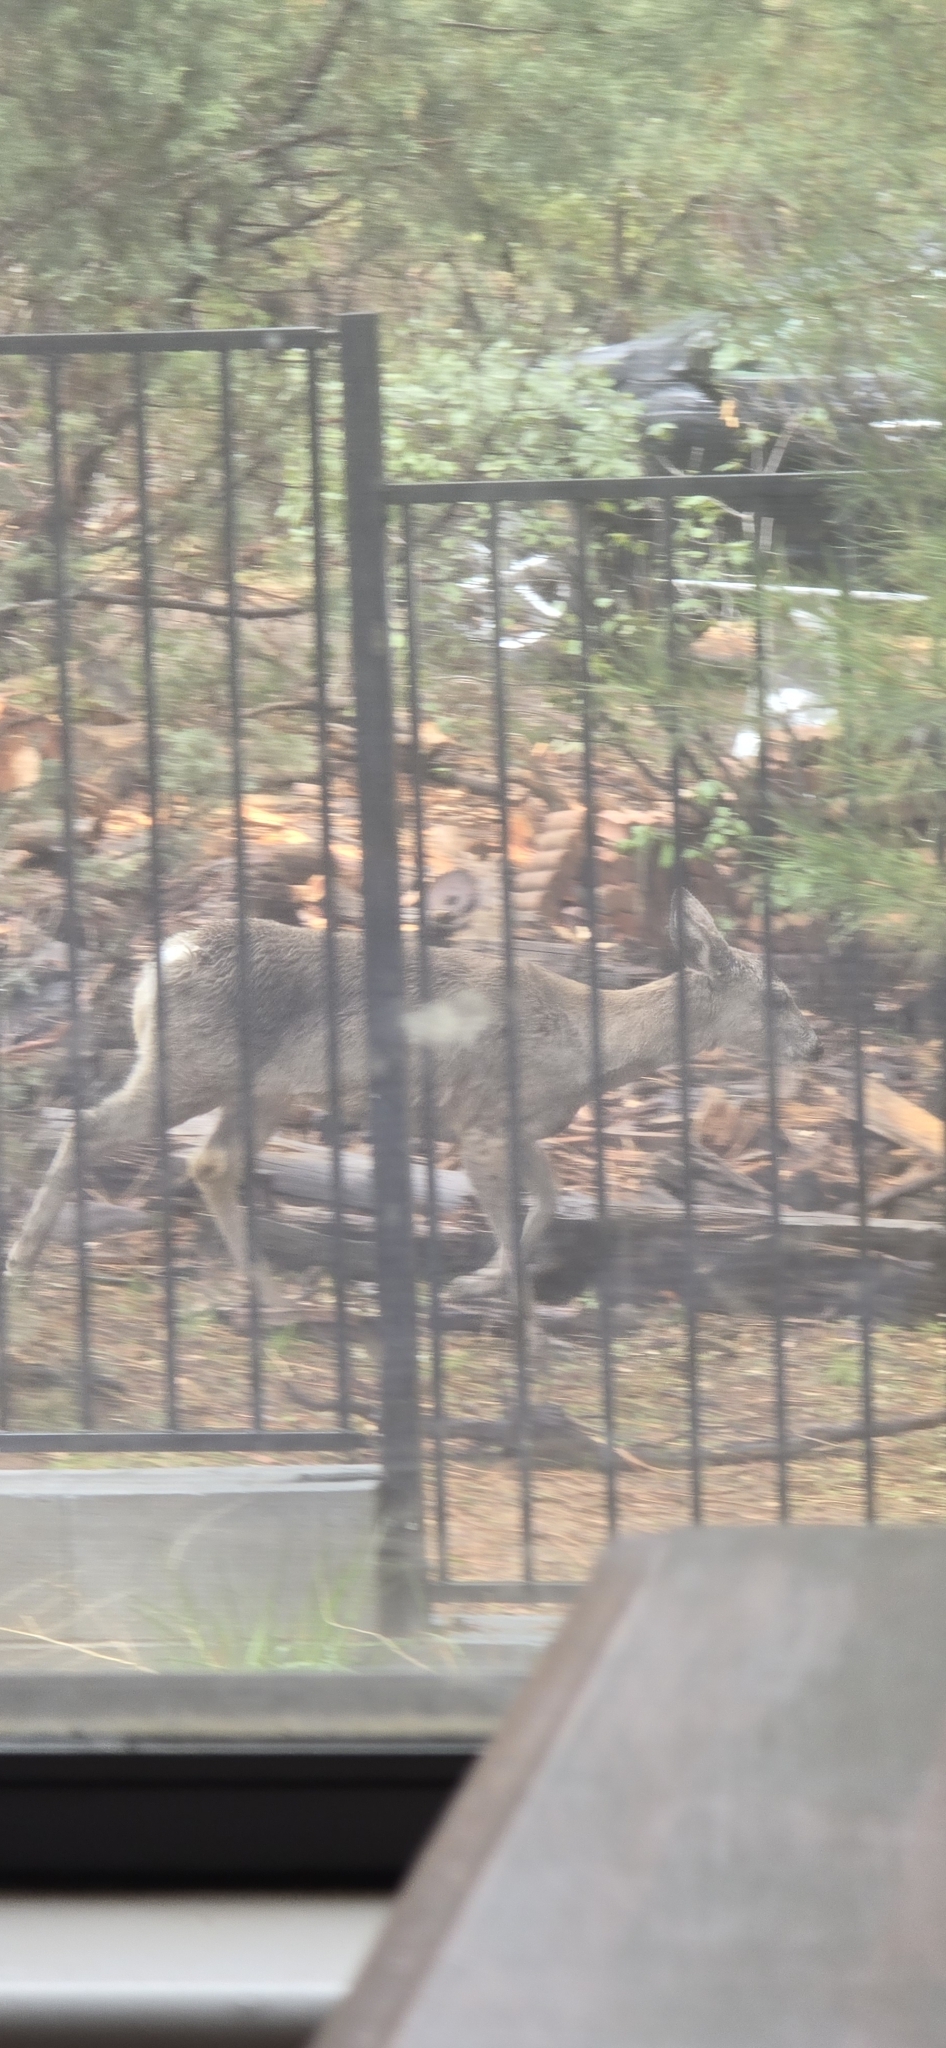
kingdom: Animalia
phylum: Chordata
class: Mammalia
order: Artiodactyla
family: Cervidae
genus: Odocoileus
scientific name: Odocoileus virginianus
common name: White-tailed deer
